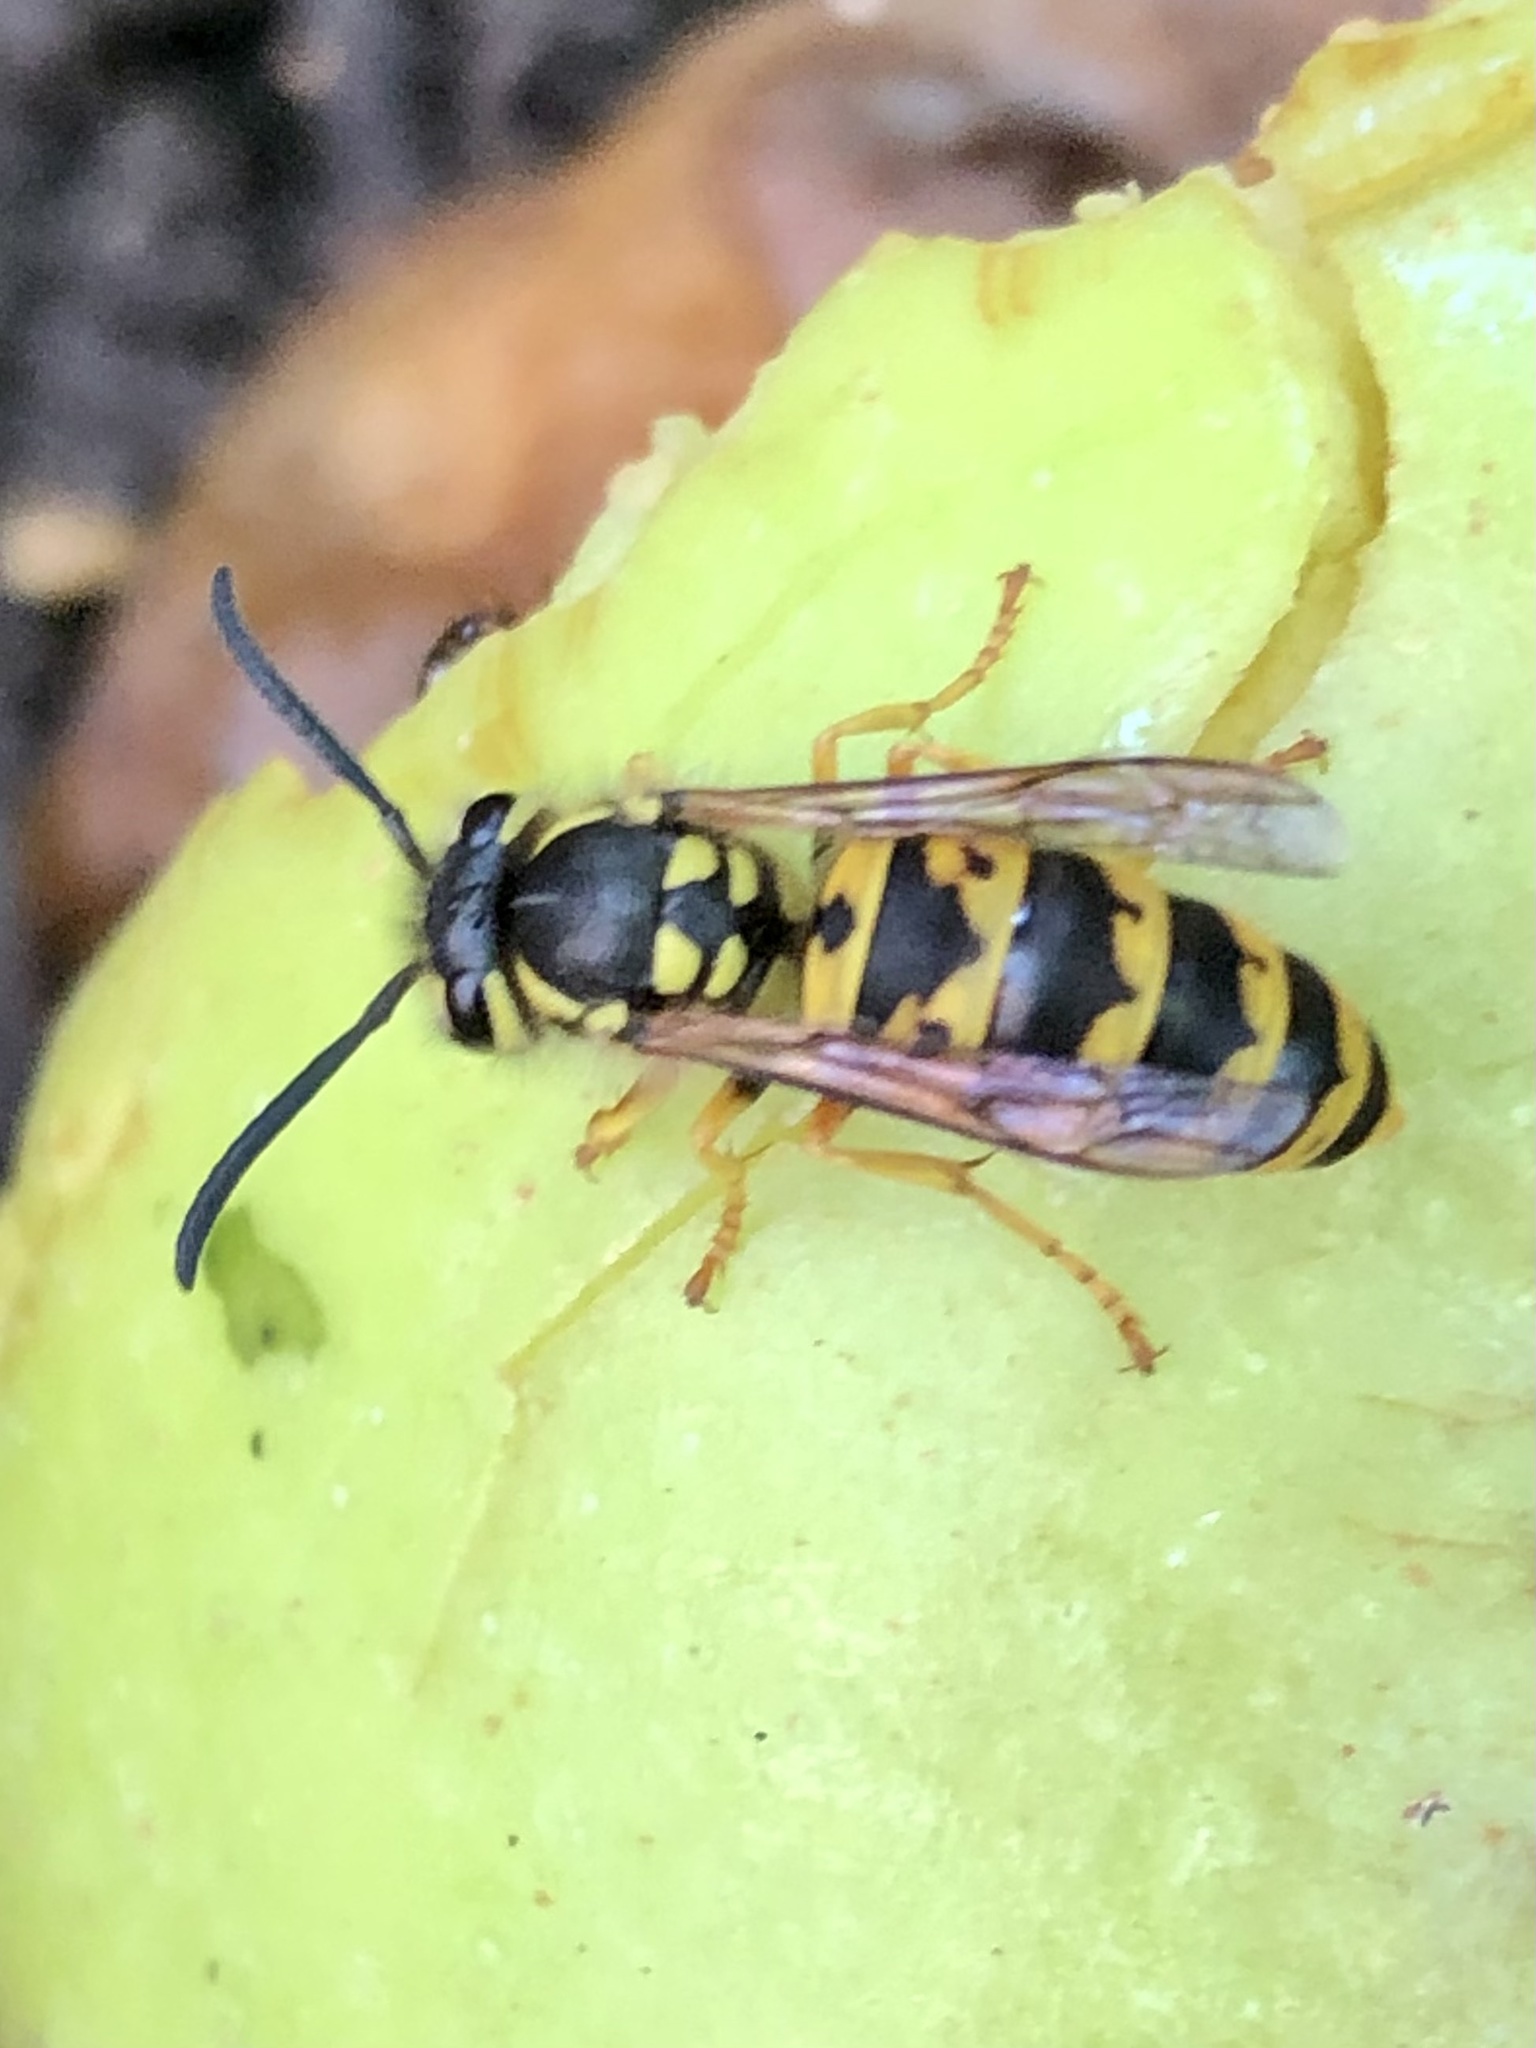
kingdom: Animalia
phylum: Arthropoda
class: Insecta
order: Hymenoptera
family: Vespidae
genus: Vespula
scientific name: Vespula germanica
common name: German wasp
